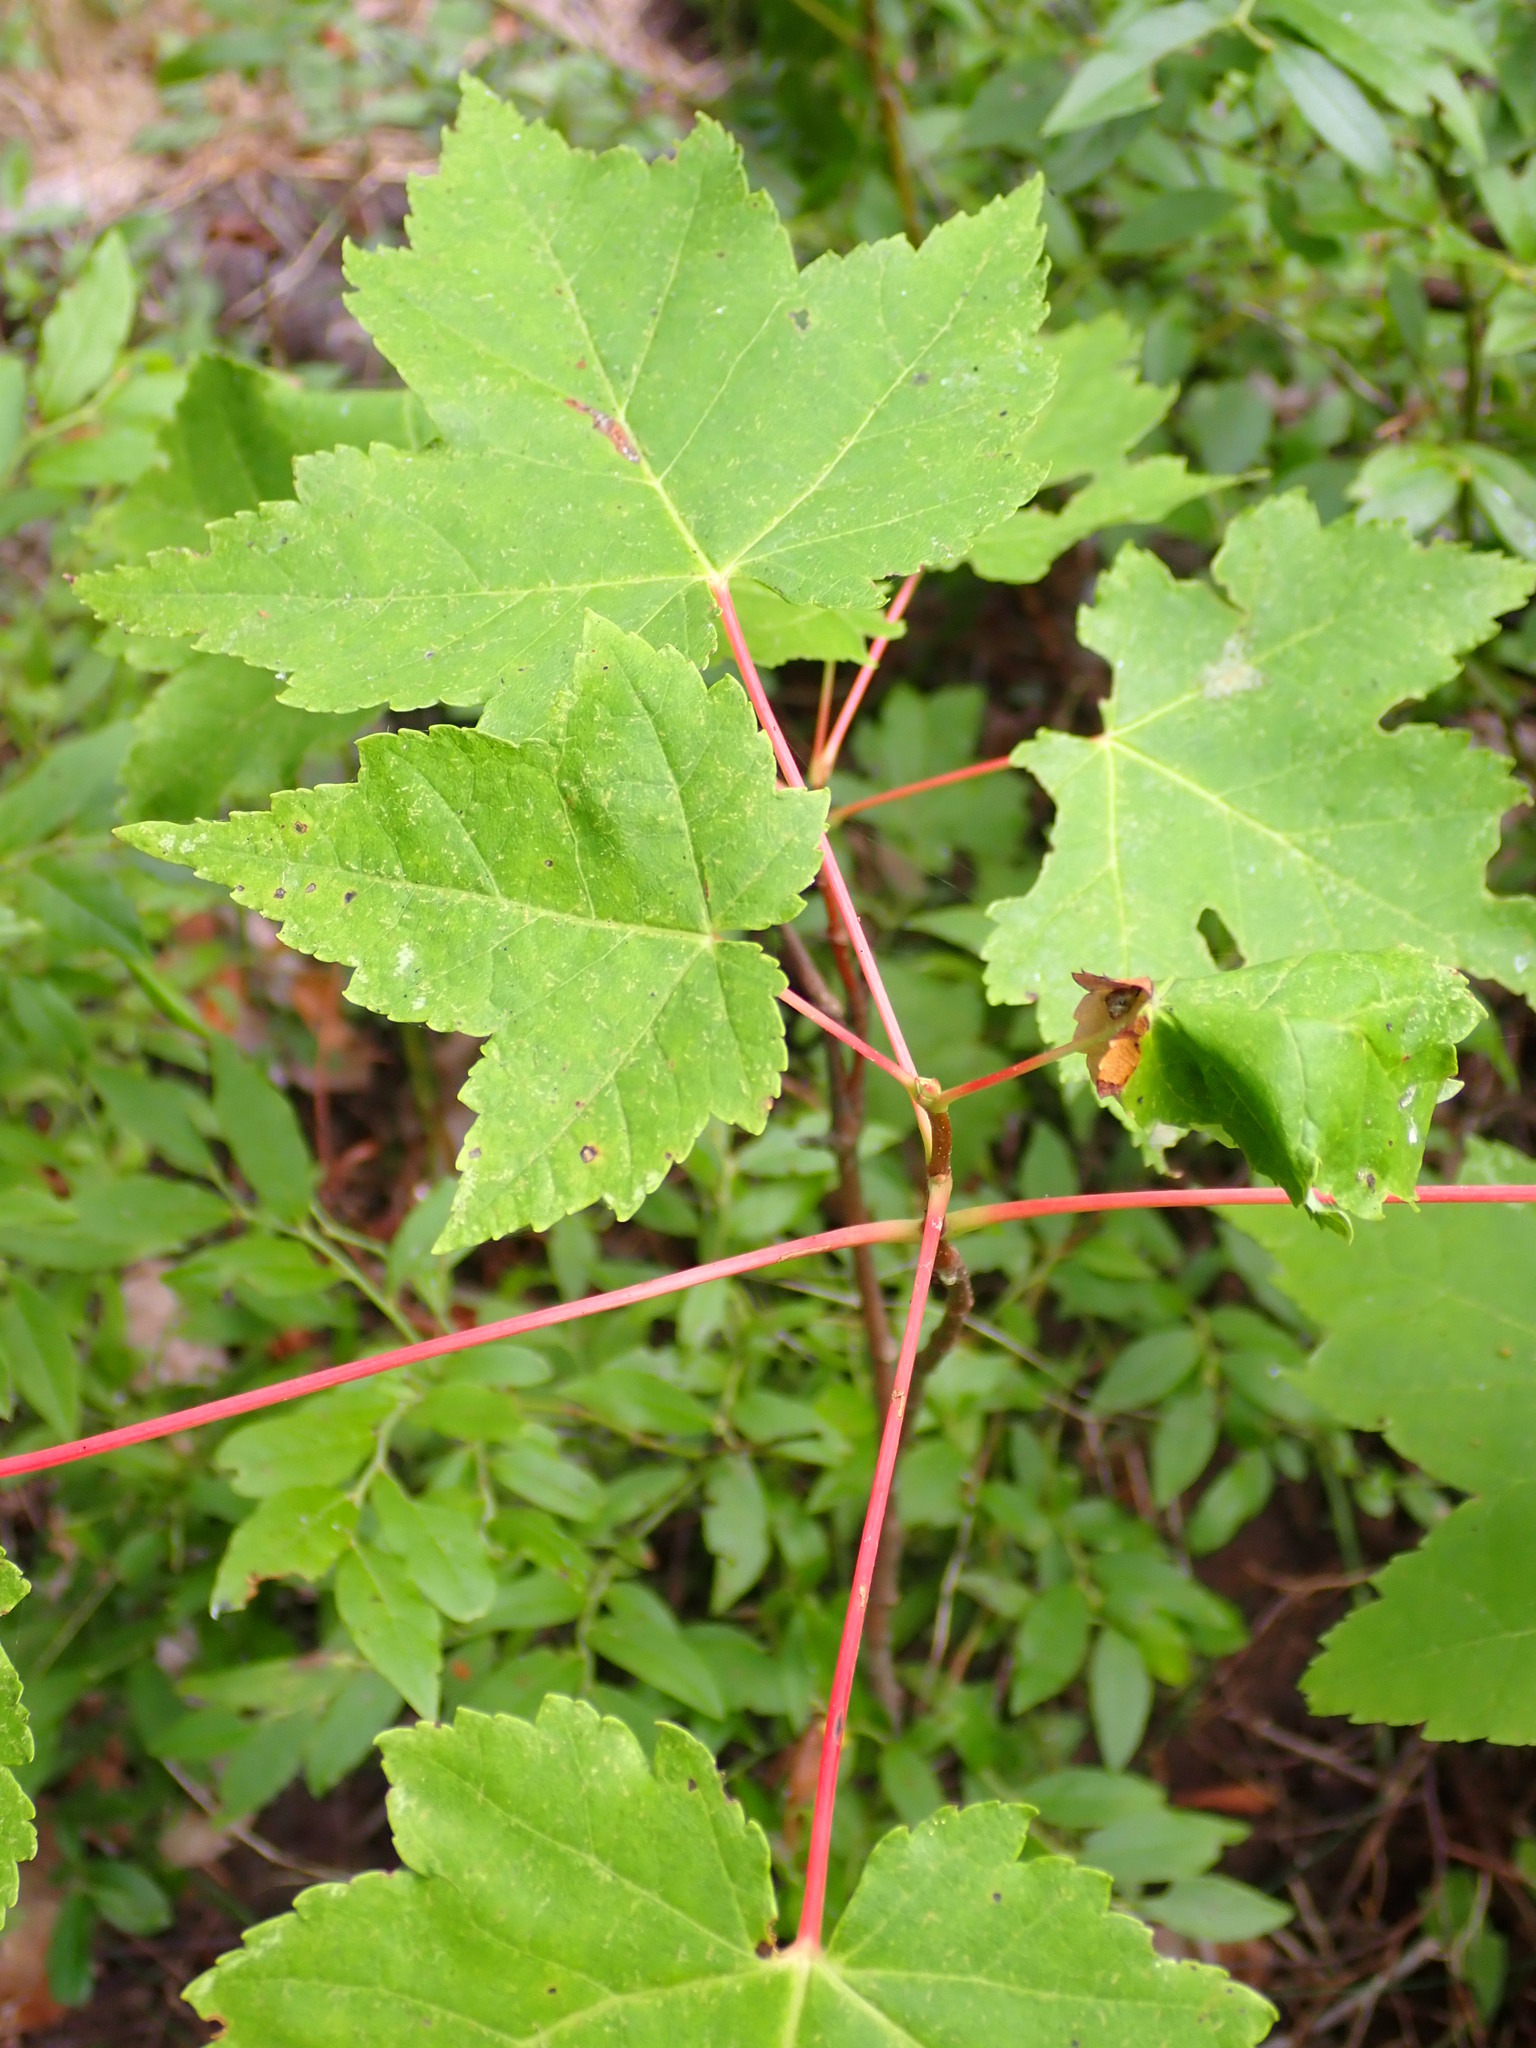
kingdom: Plantae
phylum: Tracheophyta
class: Magnoliopsida
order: Sapindales
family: Sapindaceae
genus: Acer
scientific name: Acer rubrum
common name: Red maple
